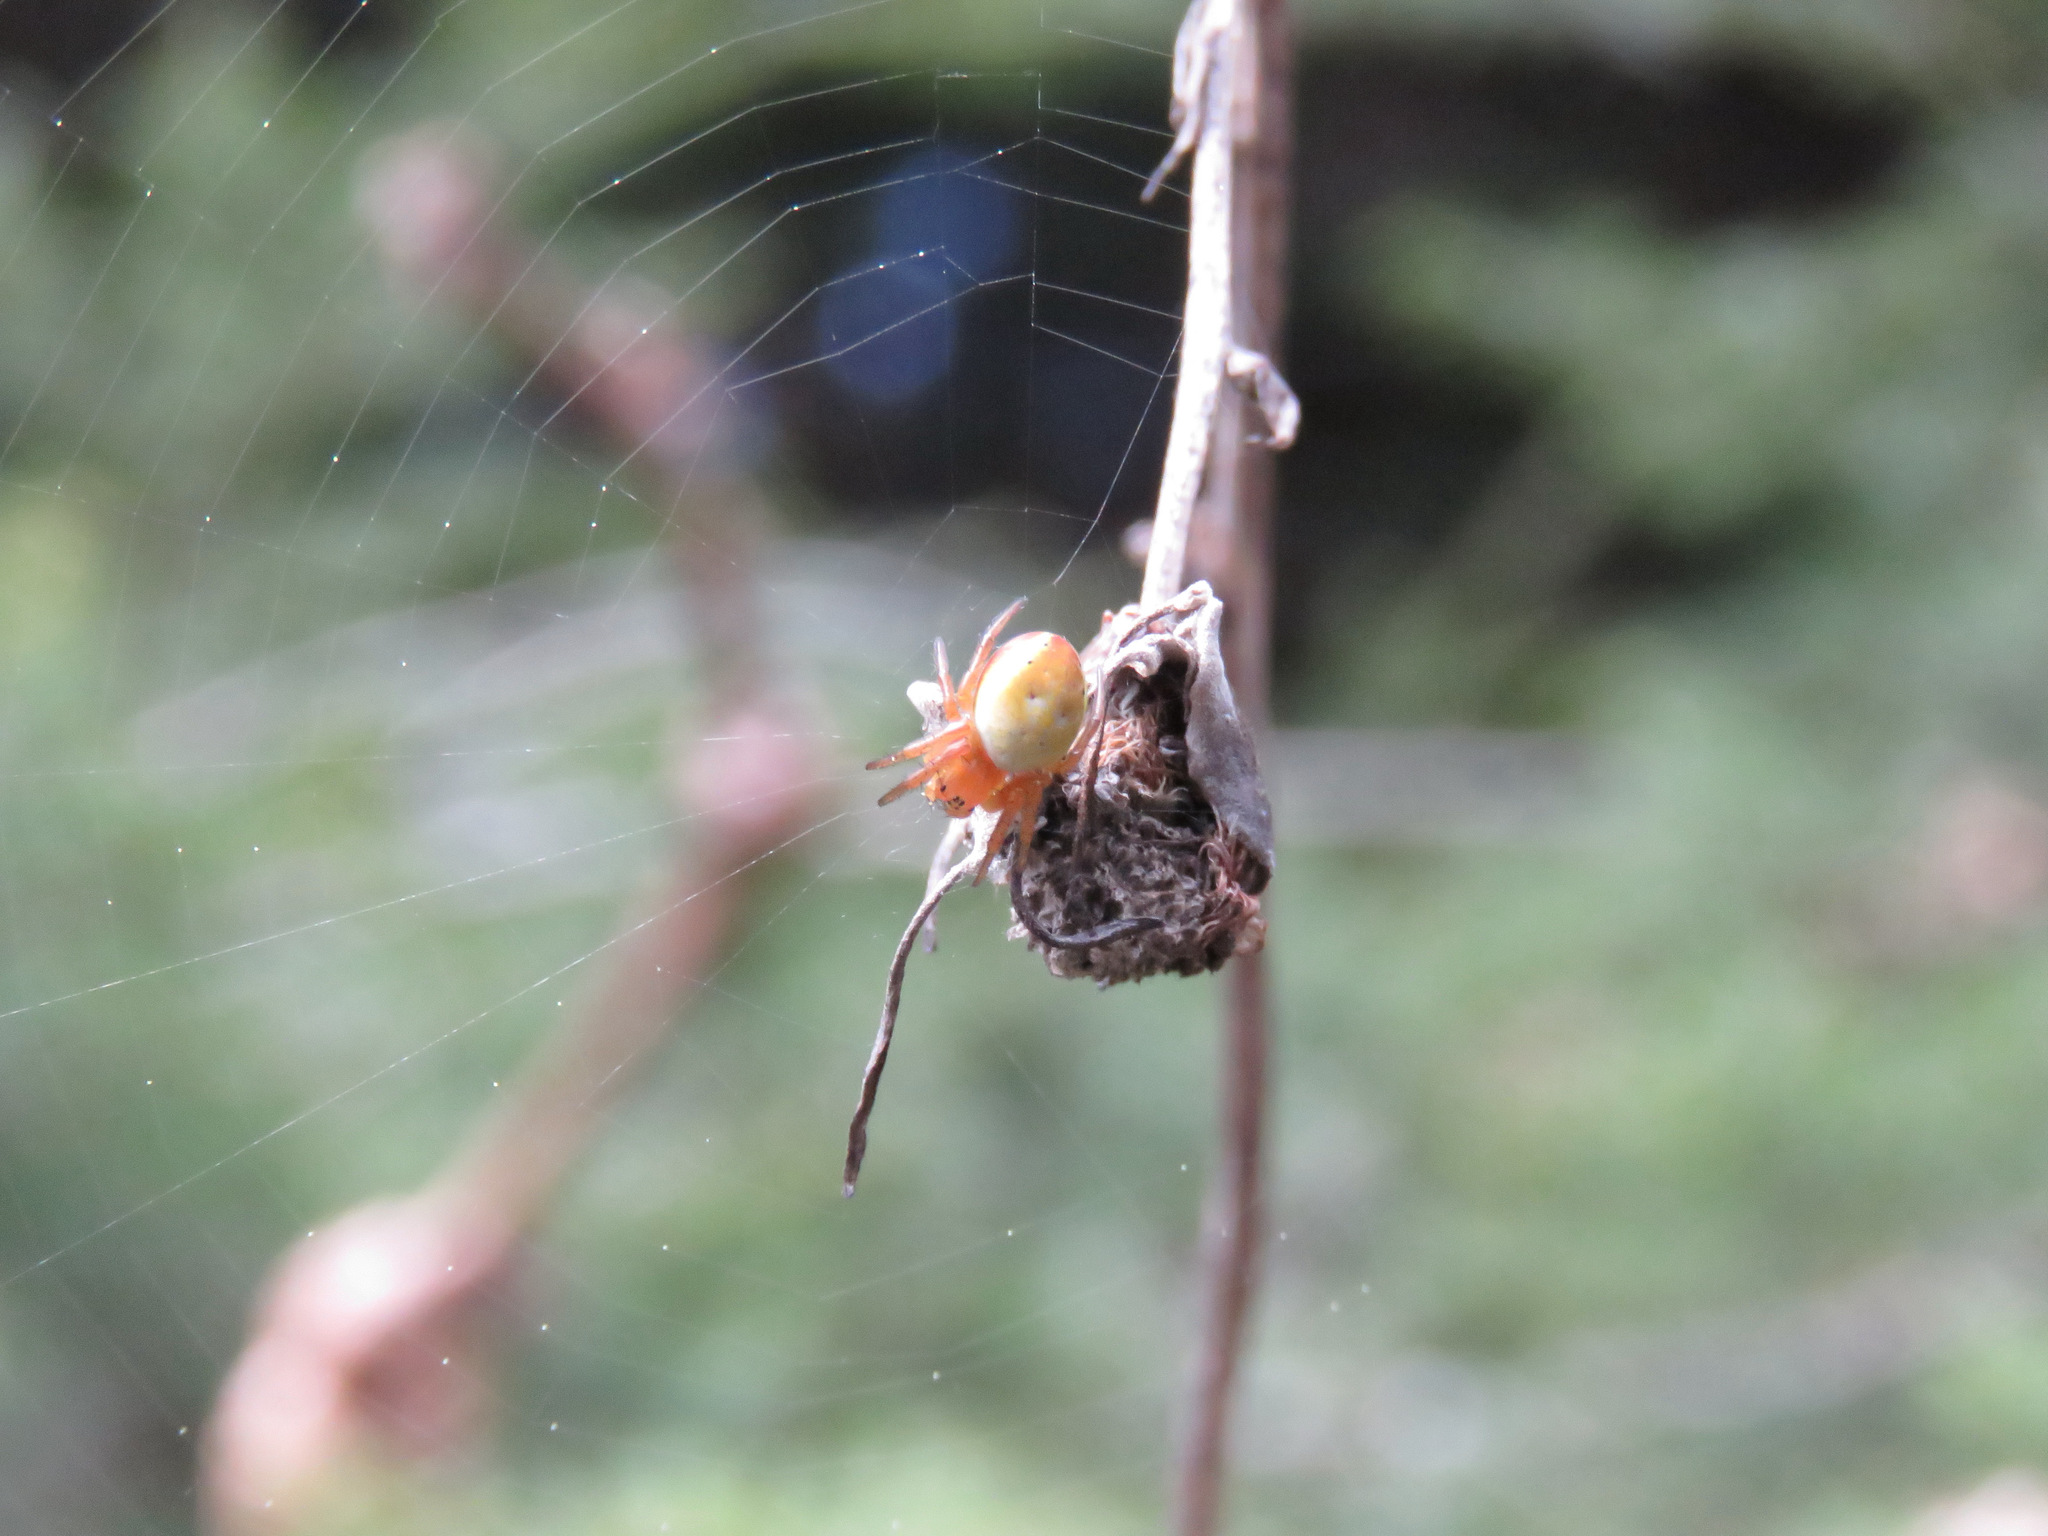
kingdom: Animalia
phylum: Arthropoda
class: Arachnida
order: Araneae
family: Araneidae
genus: Araniella
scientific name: Araniella displicata
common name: Sixspotted orb weaver
